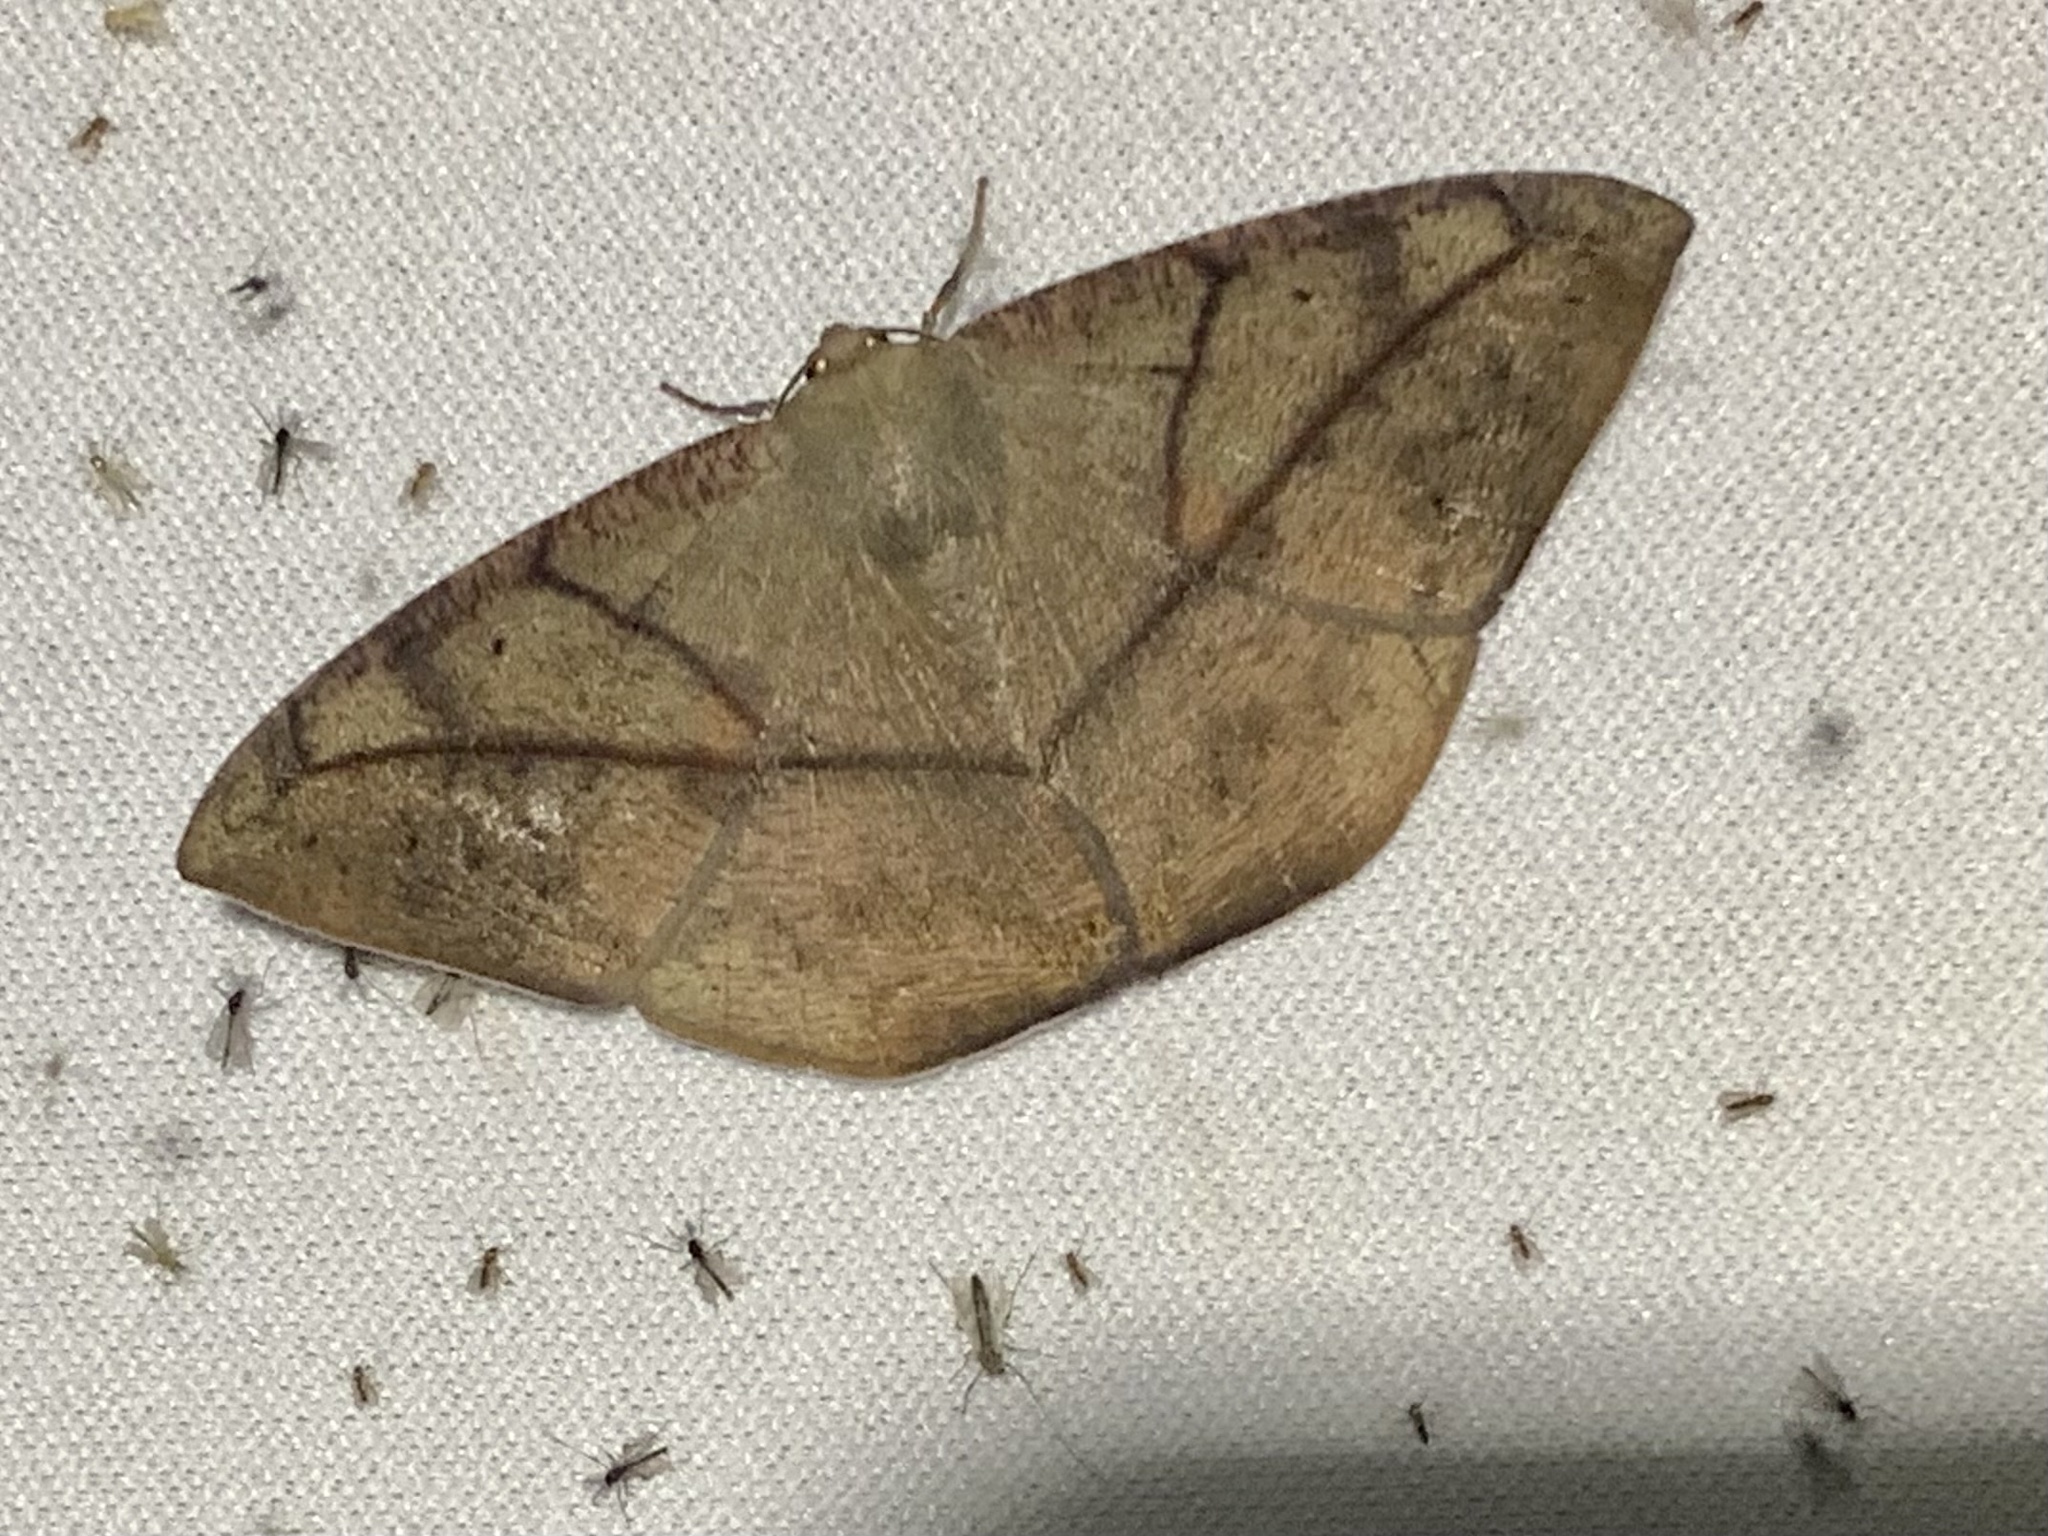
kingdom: Animalia
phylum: Arthropoda
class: Insecta
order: Lepidoptera
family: Geometridae
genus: Oxydia
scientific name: Oxydia trychiata
